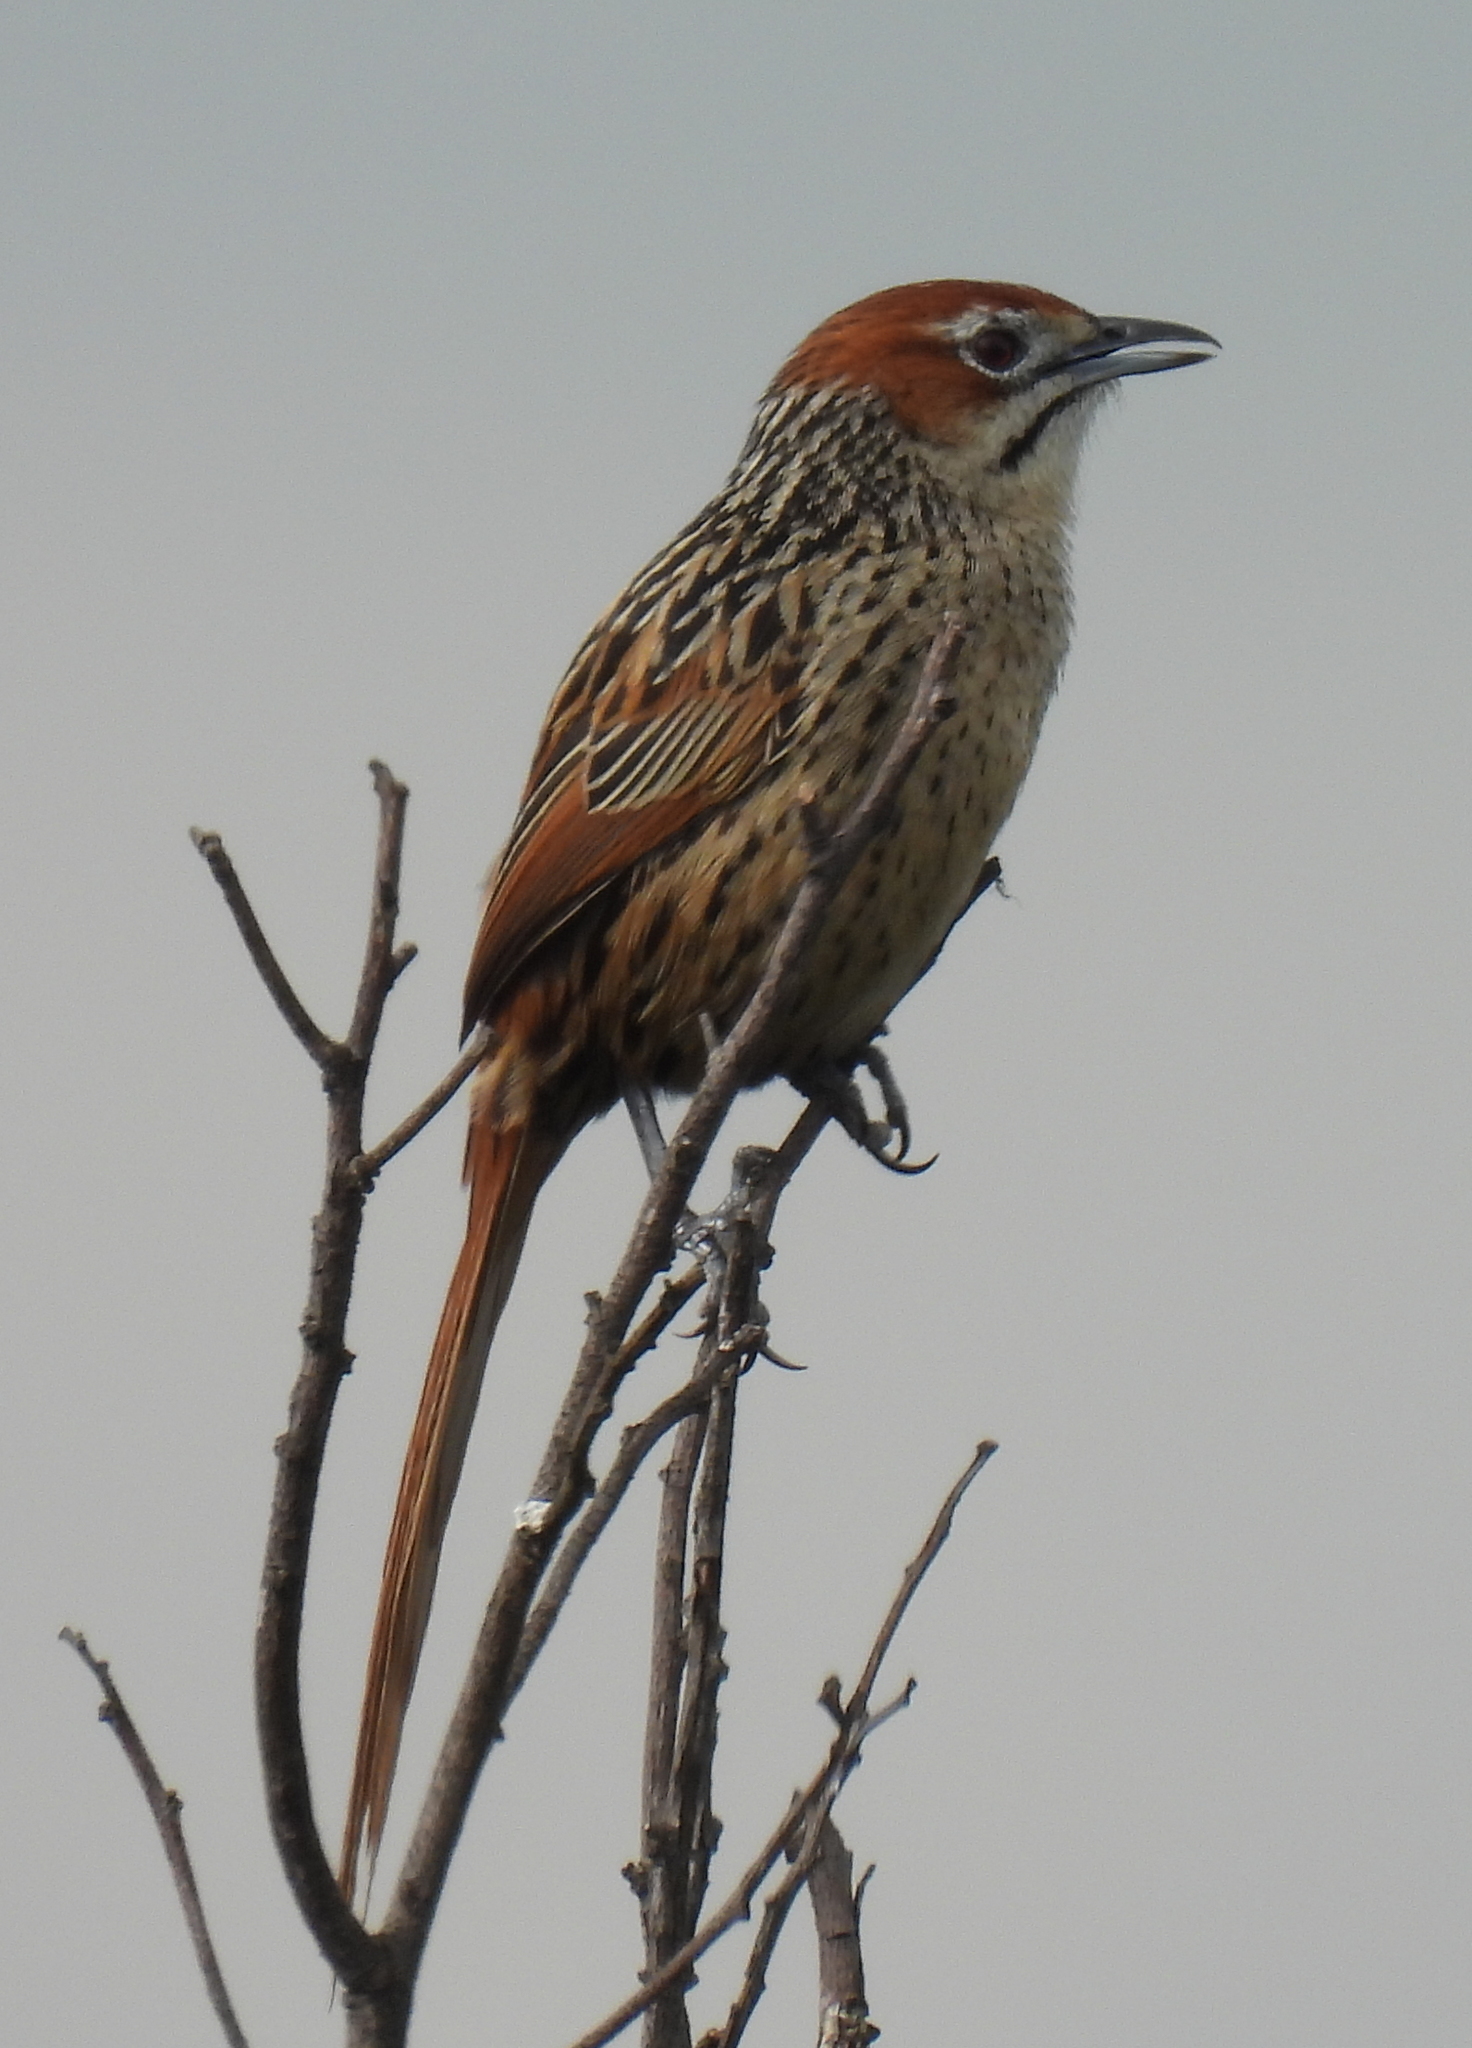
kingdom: Animalia
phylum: Chordata
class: Aves
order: Passeriformes
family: Macrosphenidae
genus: Sphenoeacus
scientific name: Sphenoeacus afer
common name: Cape grassbird
